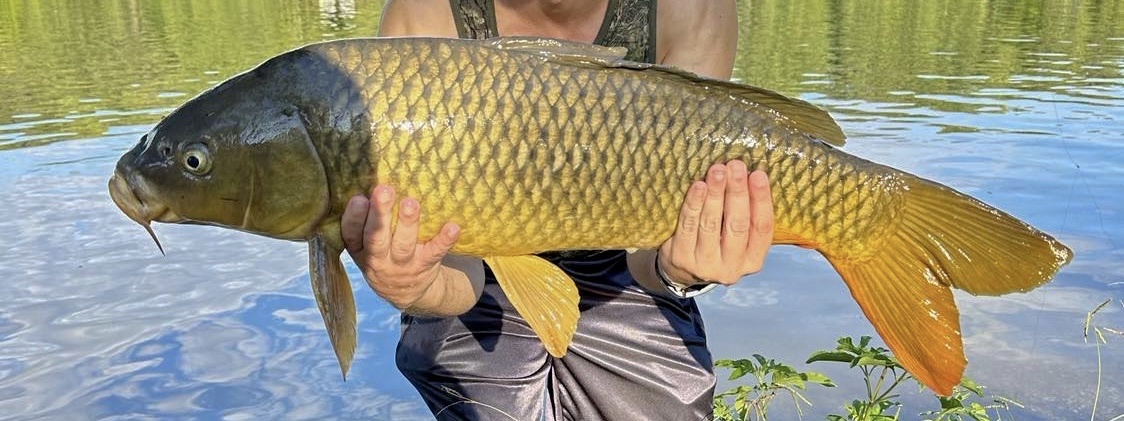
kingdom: Animalia
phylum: Chordata
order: Cypriniformes
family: Cyprinidae
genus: Cyprinus
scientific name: Cyprinus carpio
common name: Common carp
